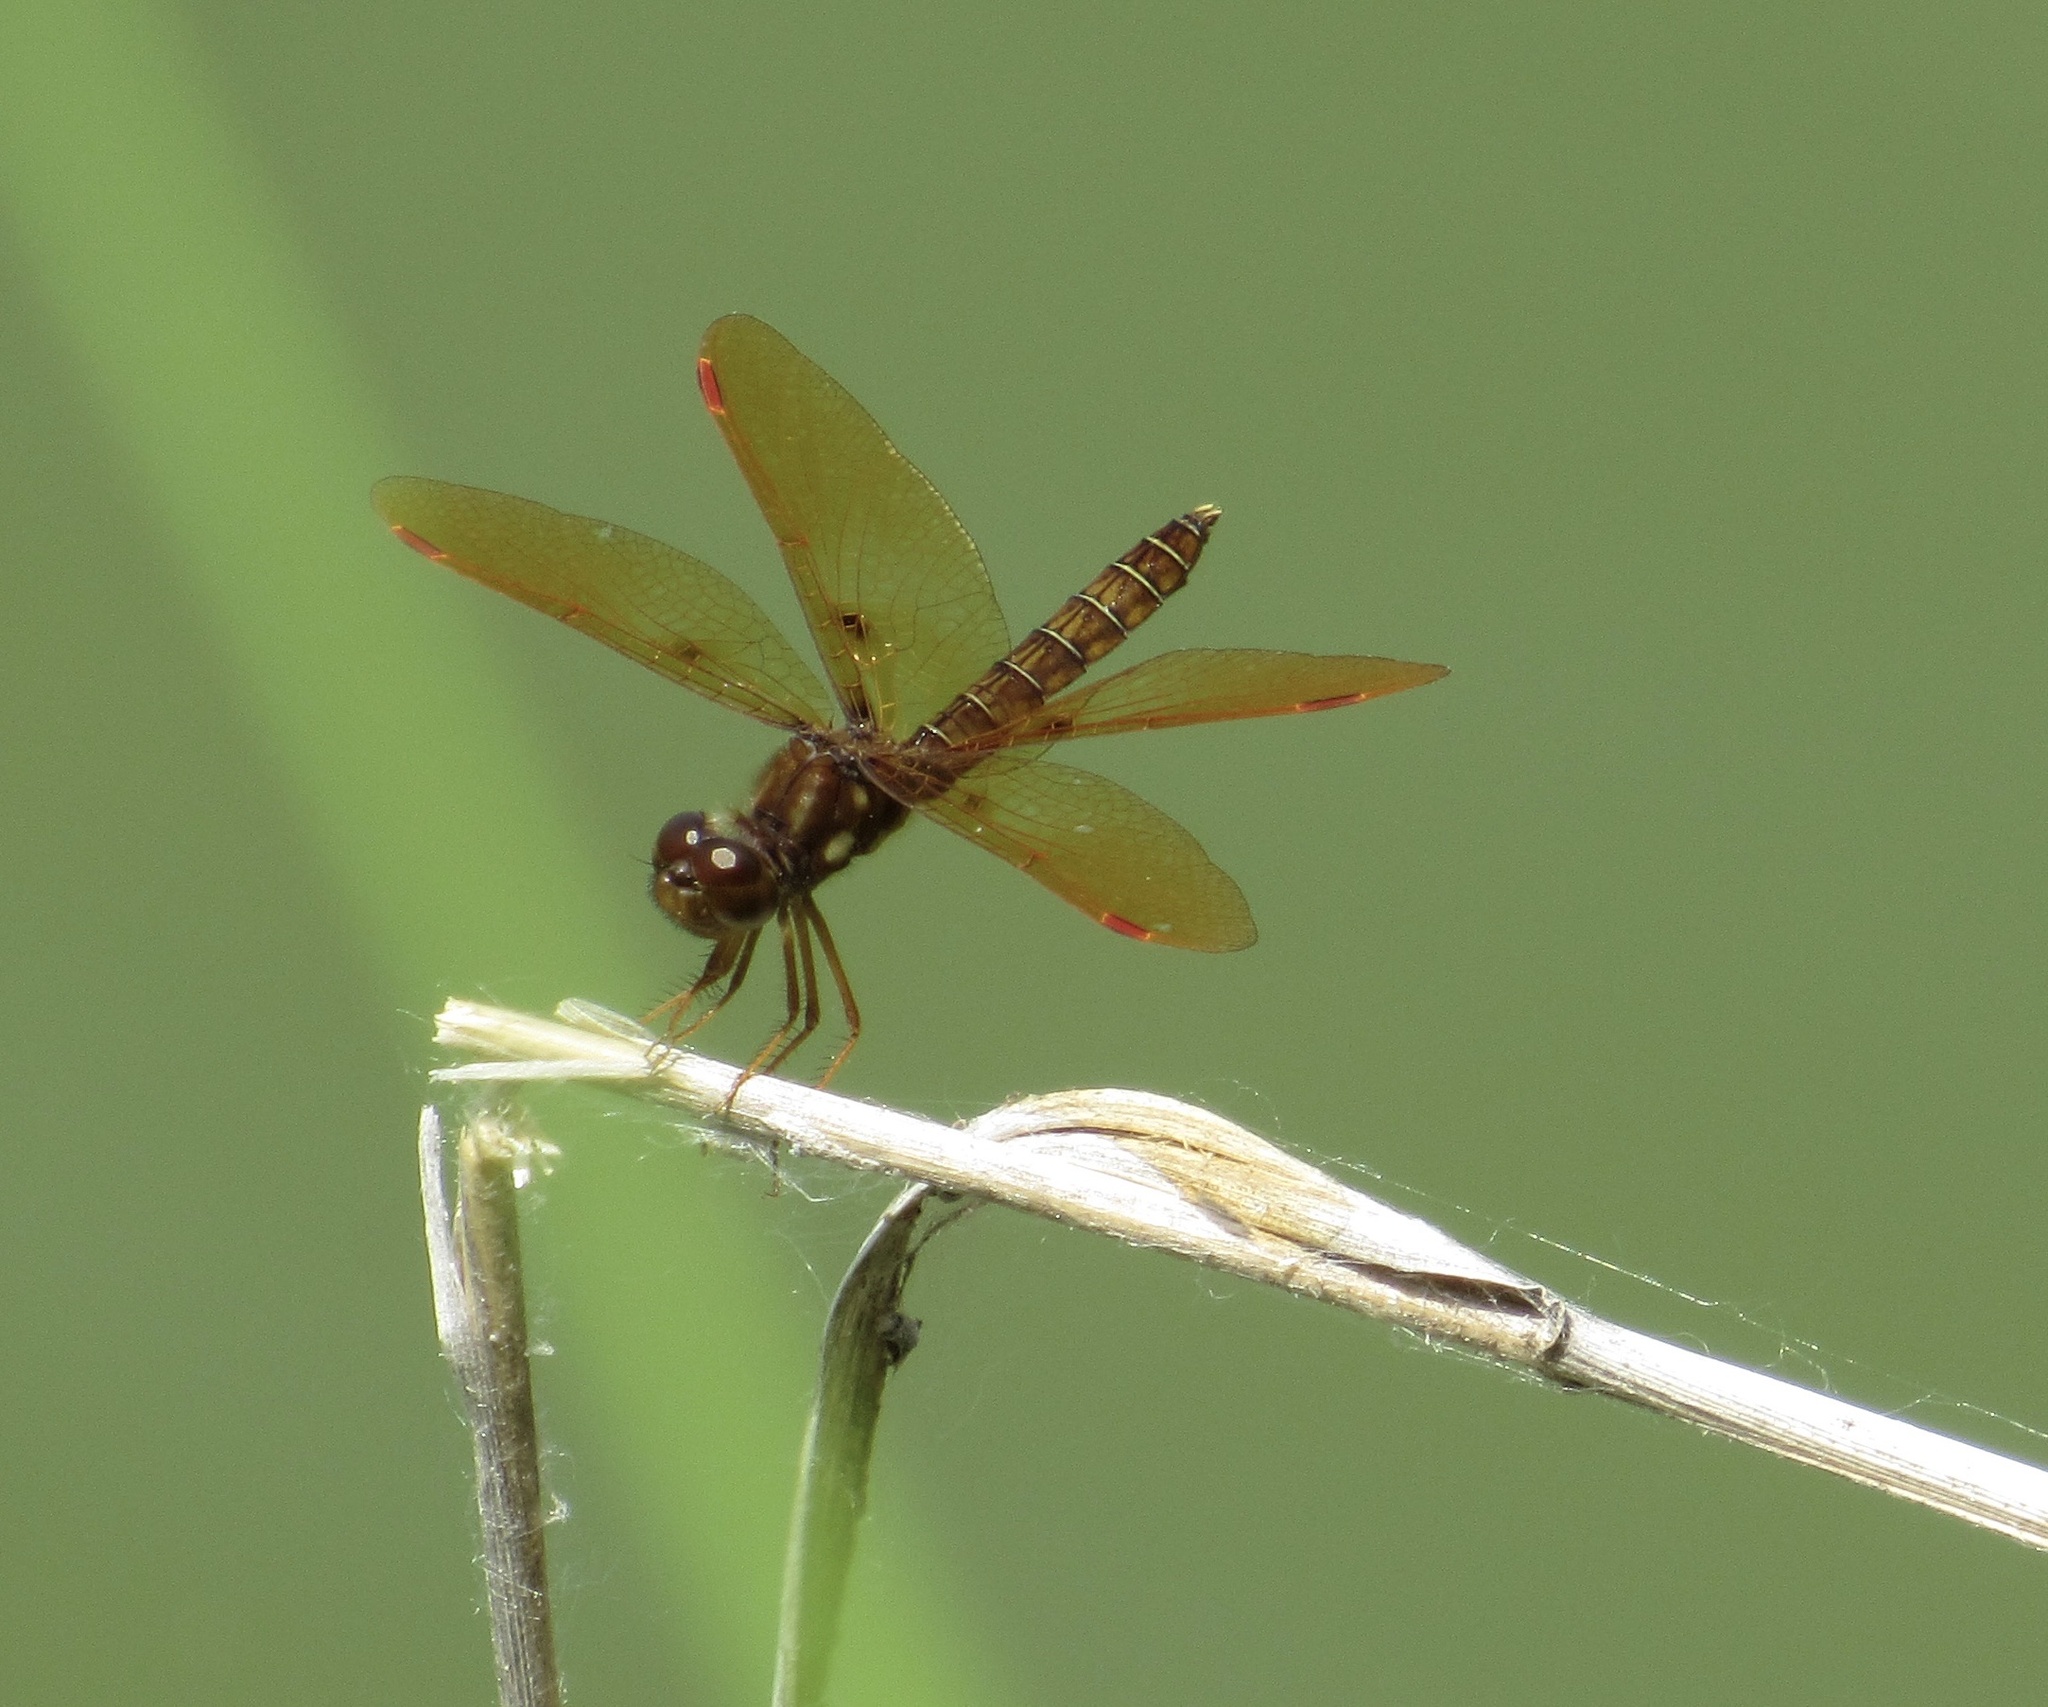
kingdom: Animalia
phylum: Arthropoda
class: Insecta
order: Odonata
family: Libellulidae
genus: Perithemis
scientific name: Perithemis tenera
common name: Eastern amberwing
